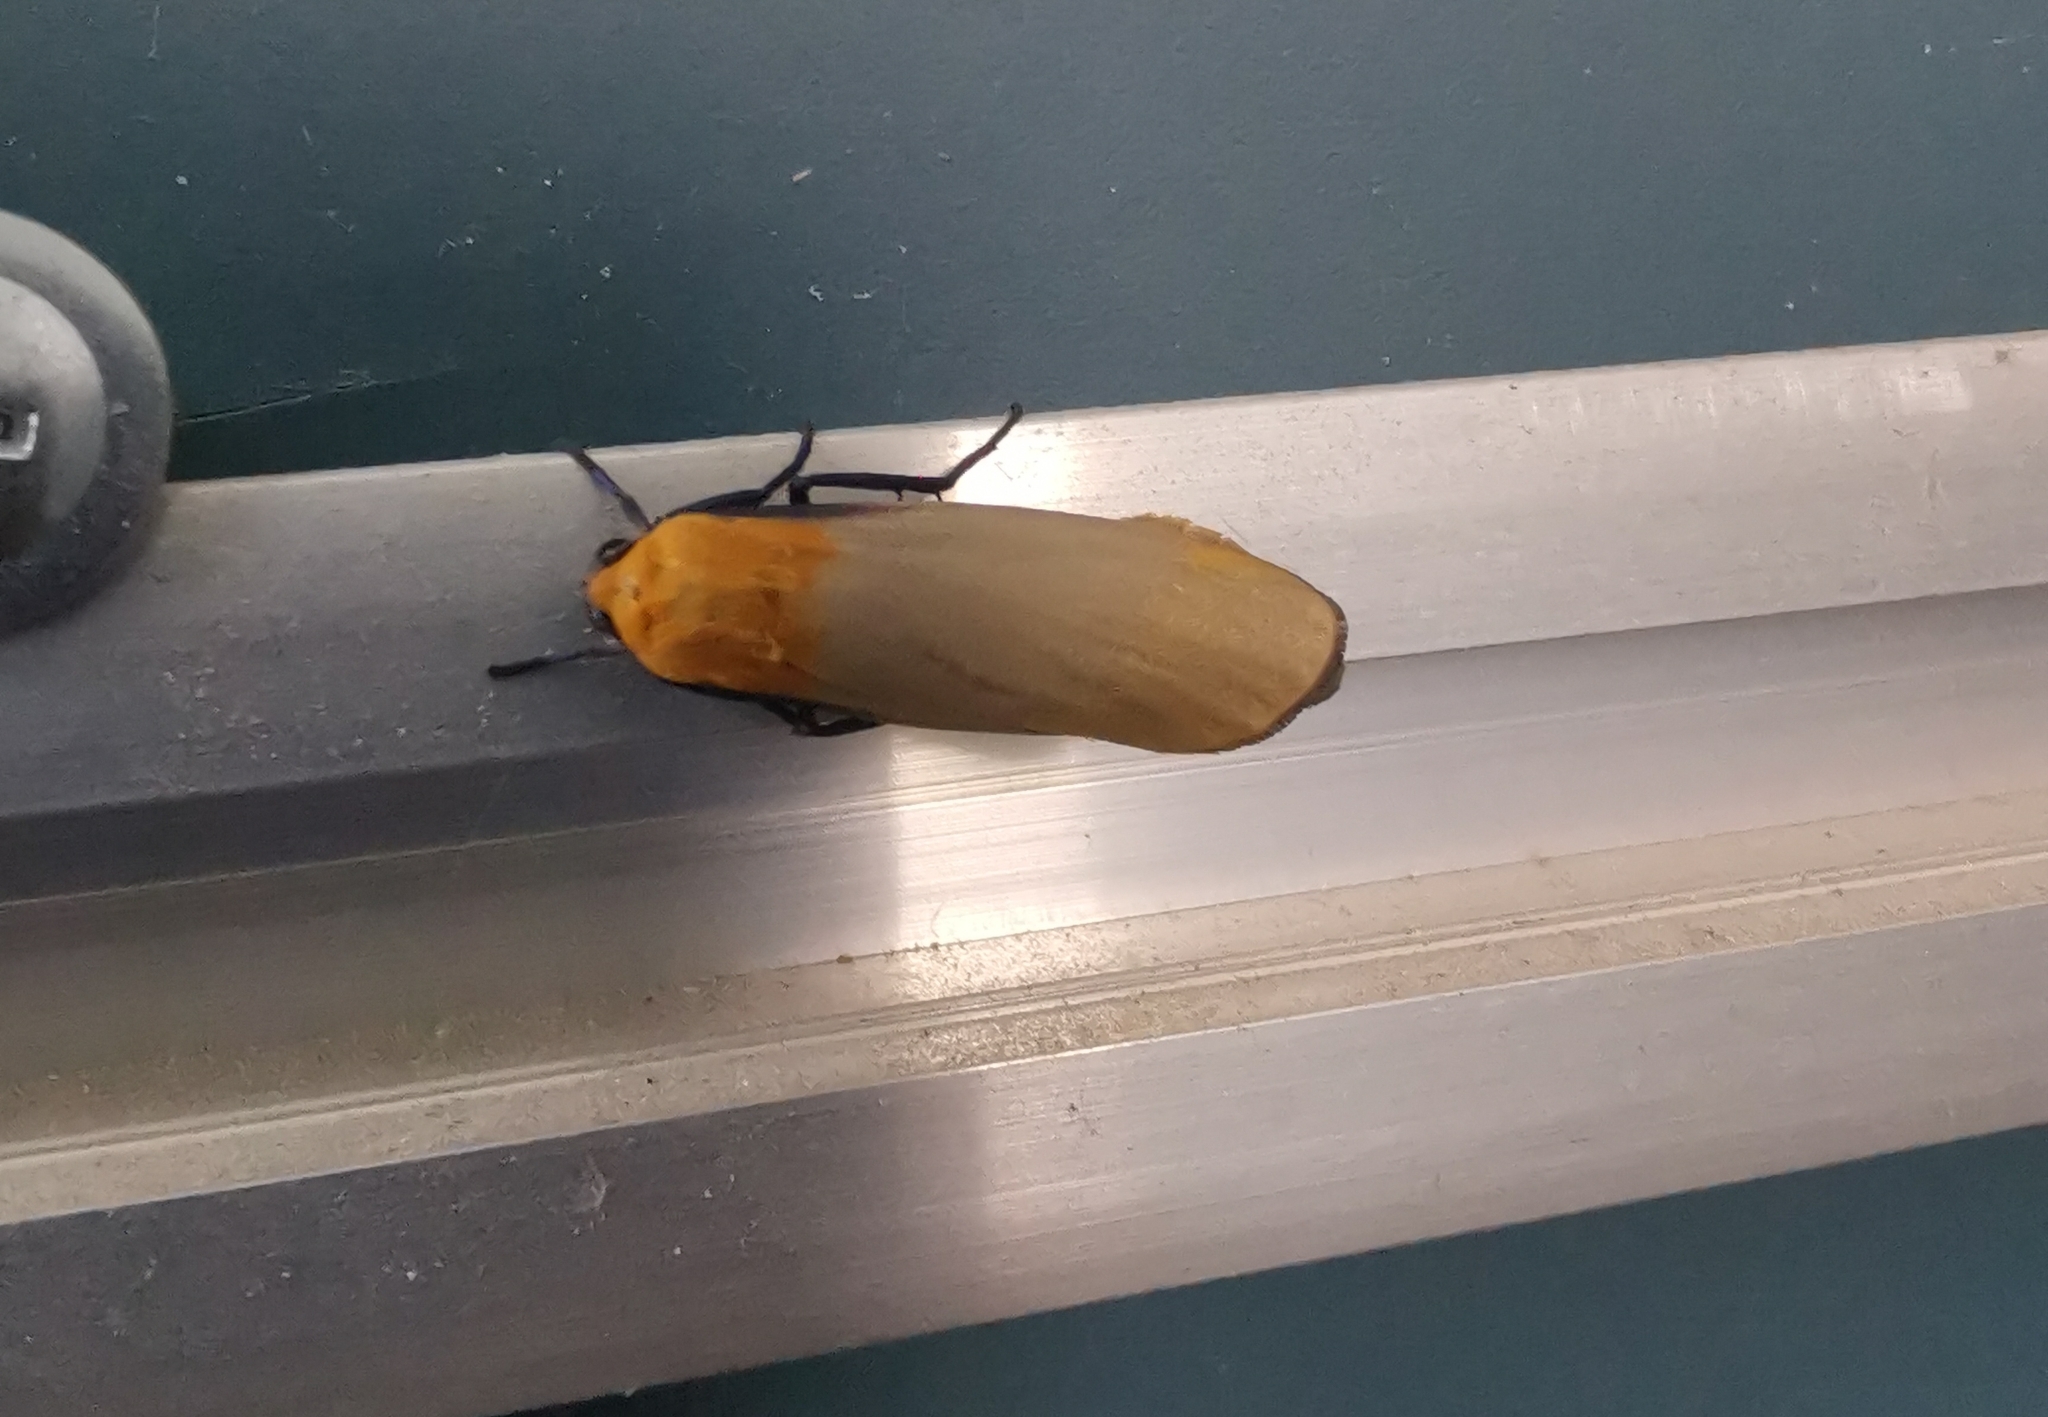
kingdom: Animalia
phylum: Arthropoda
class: Insecta
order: Lepidoptera
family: Erebidae
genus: Lithosia
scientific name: Lithosia quadra
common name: Four-spotted footman
